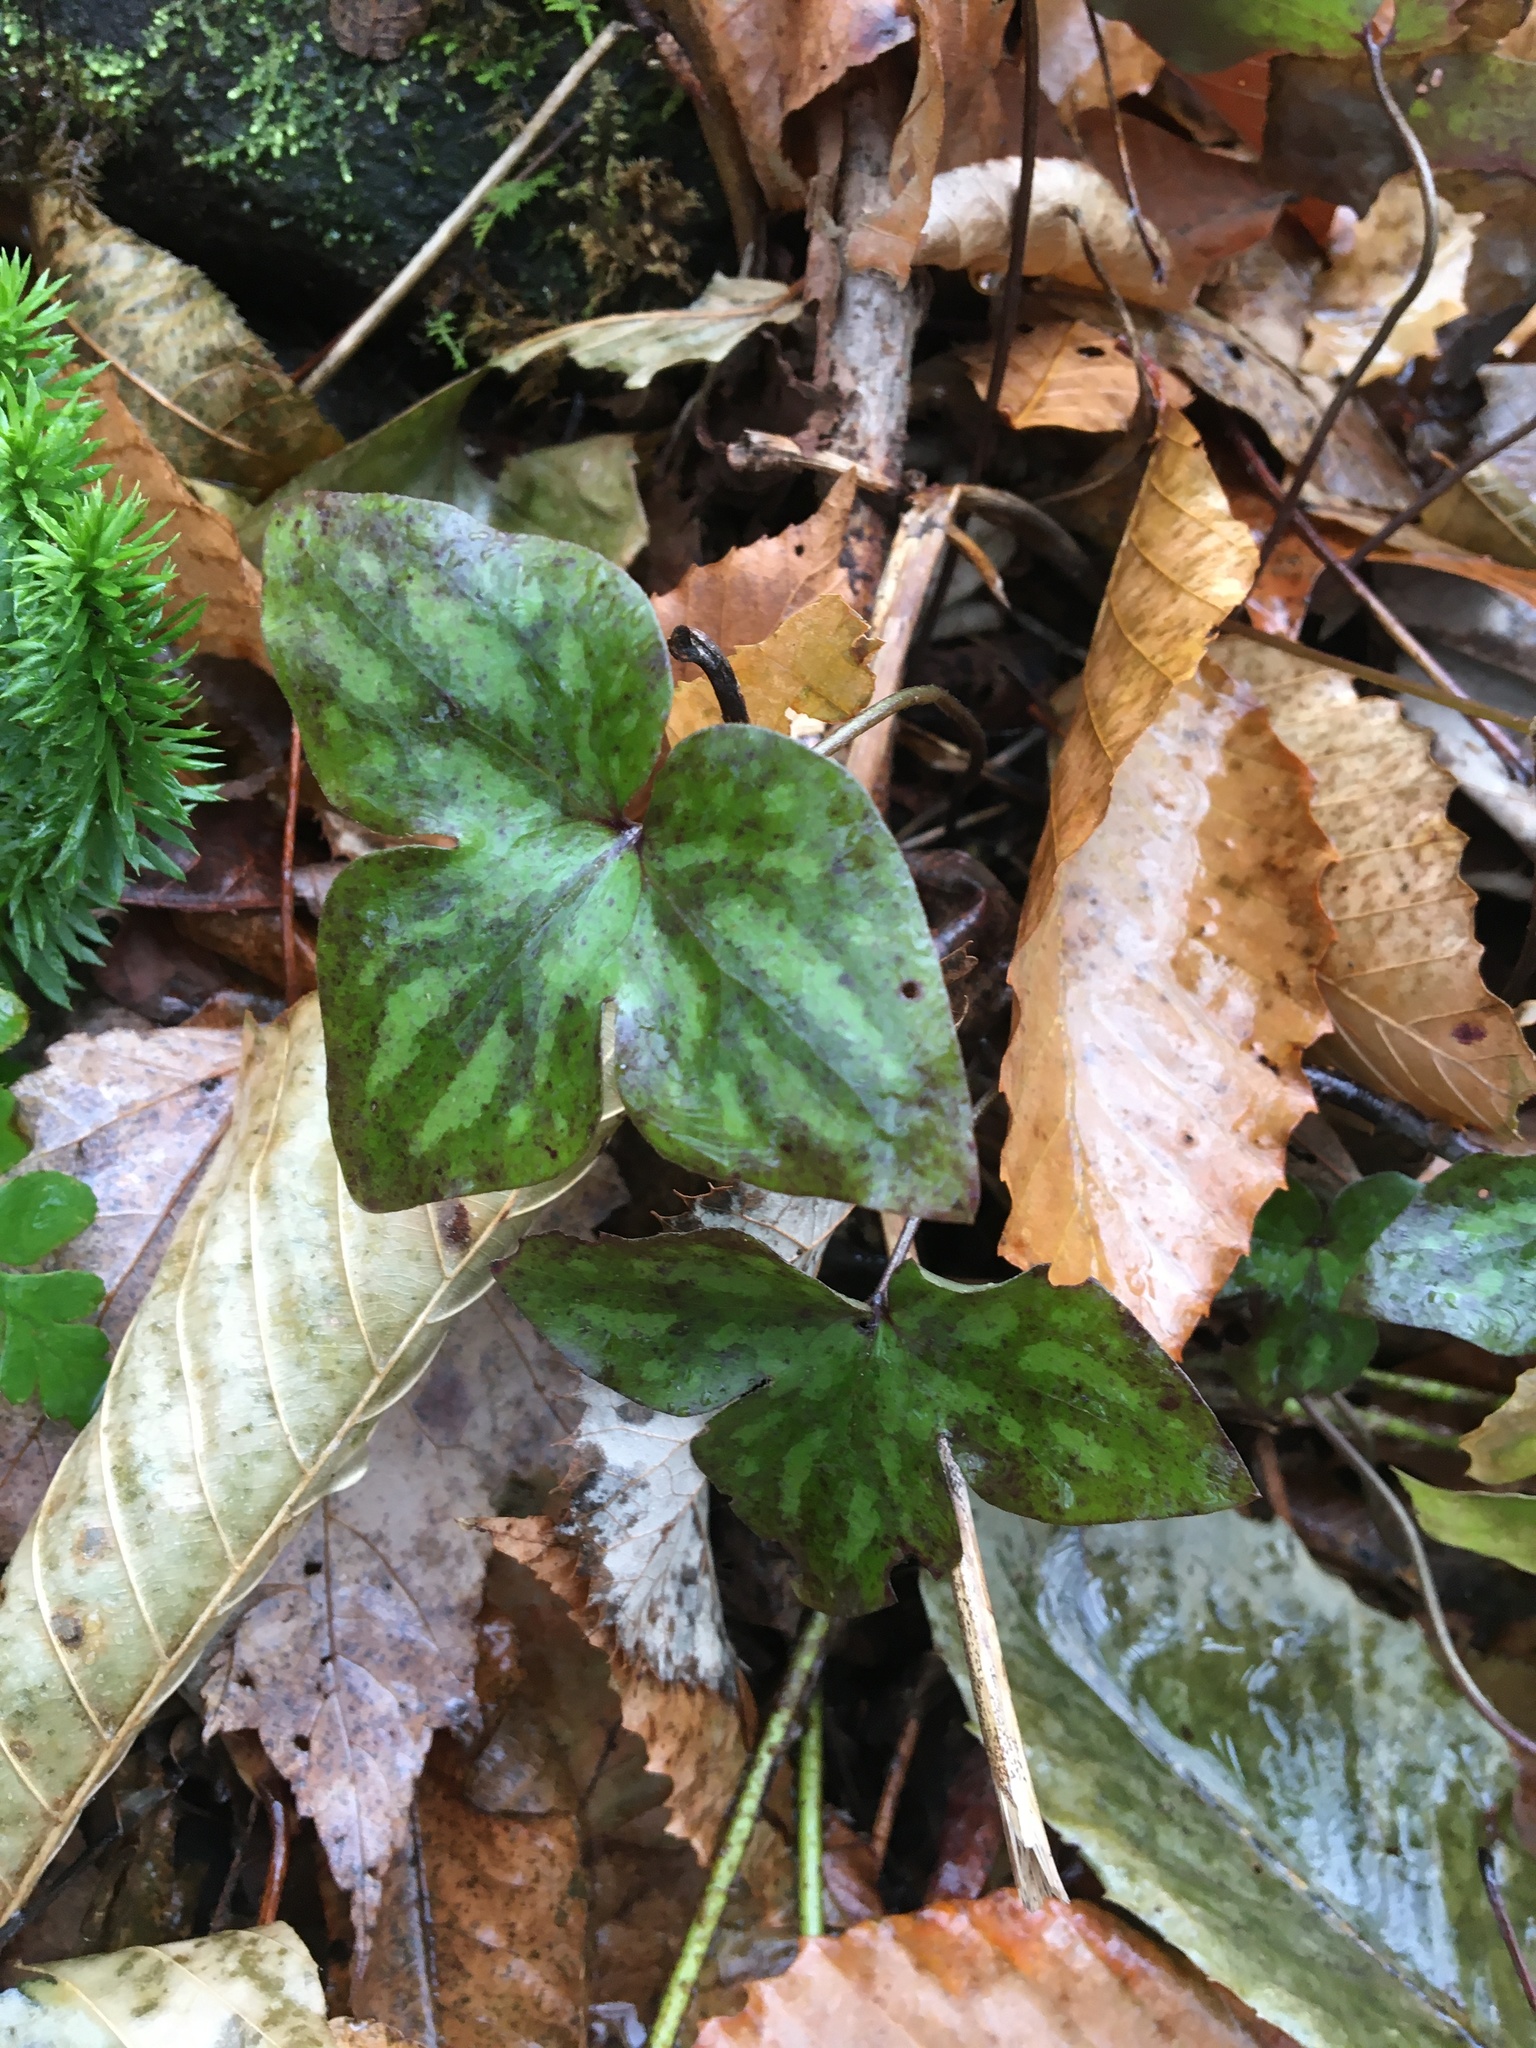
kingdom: Plantae
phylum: Tracheophyta
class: Magnoliopsida
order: Ranunculales
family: Ranunculaceae
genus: Hepatica
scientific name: Hepatica acutiloba
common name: Sharp-lobed hepatica
